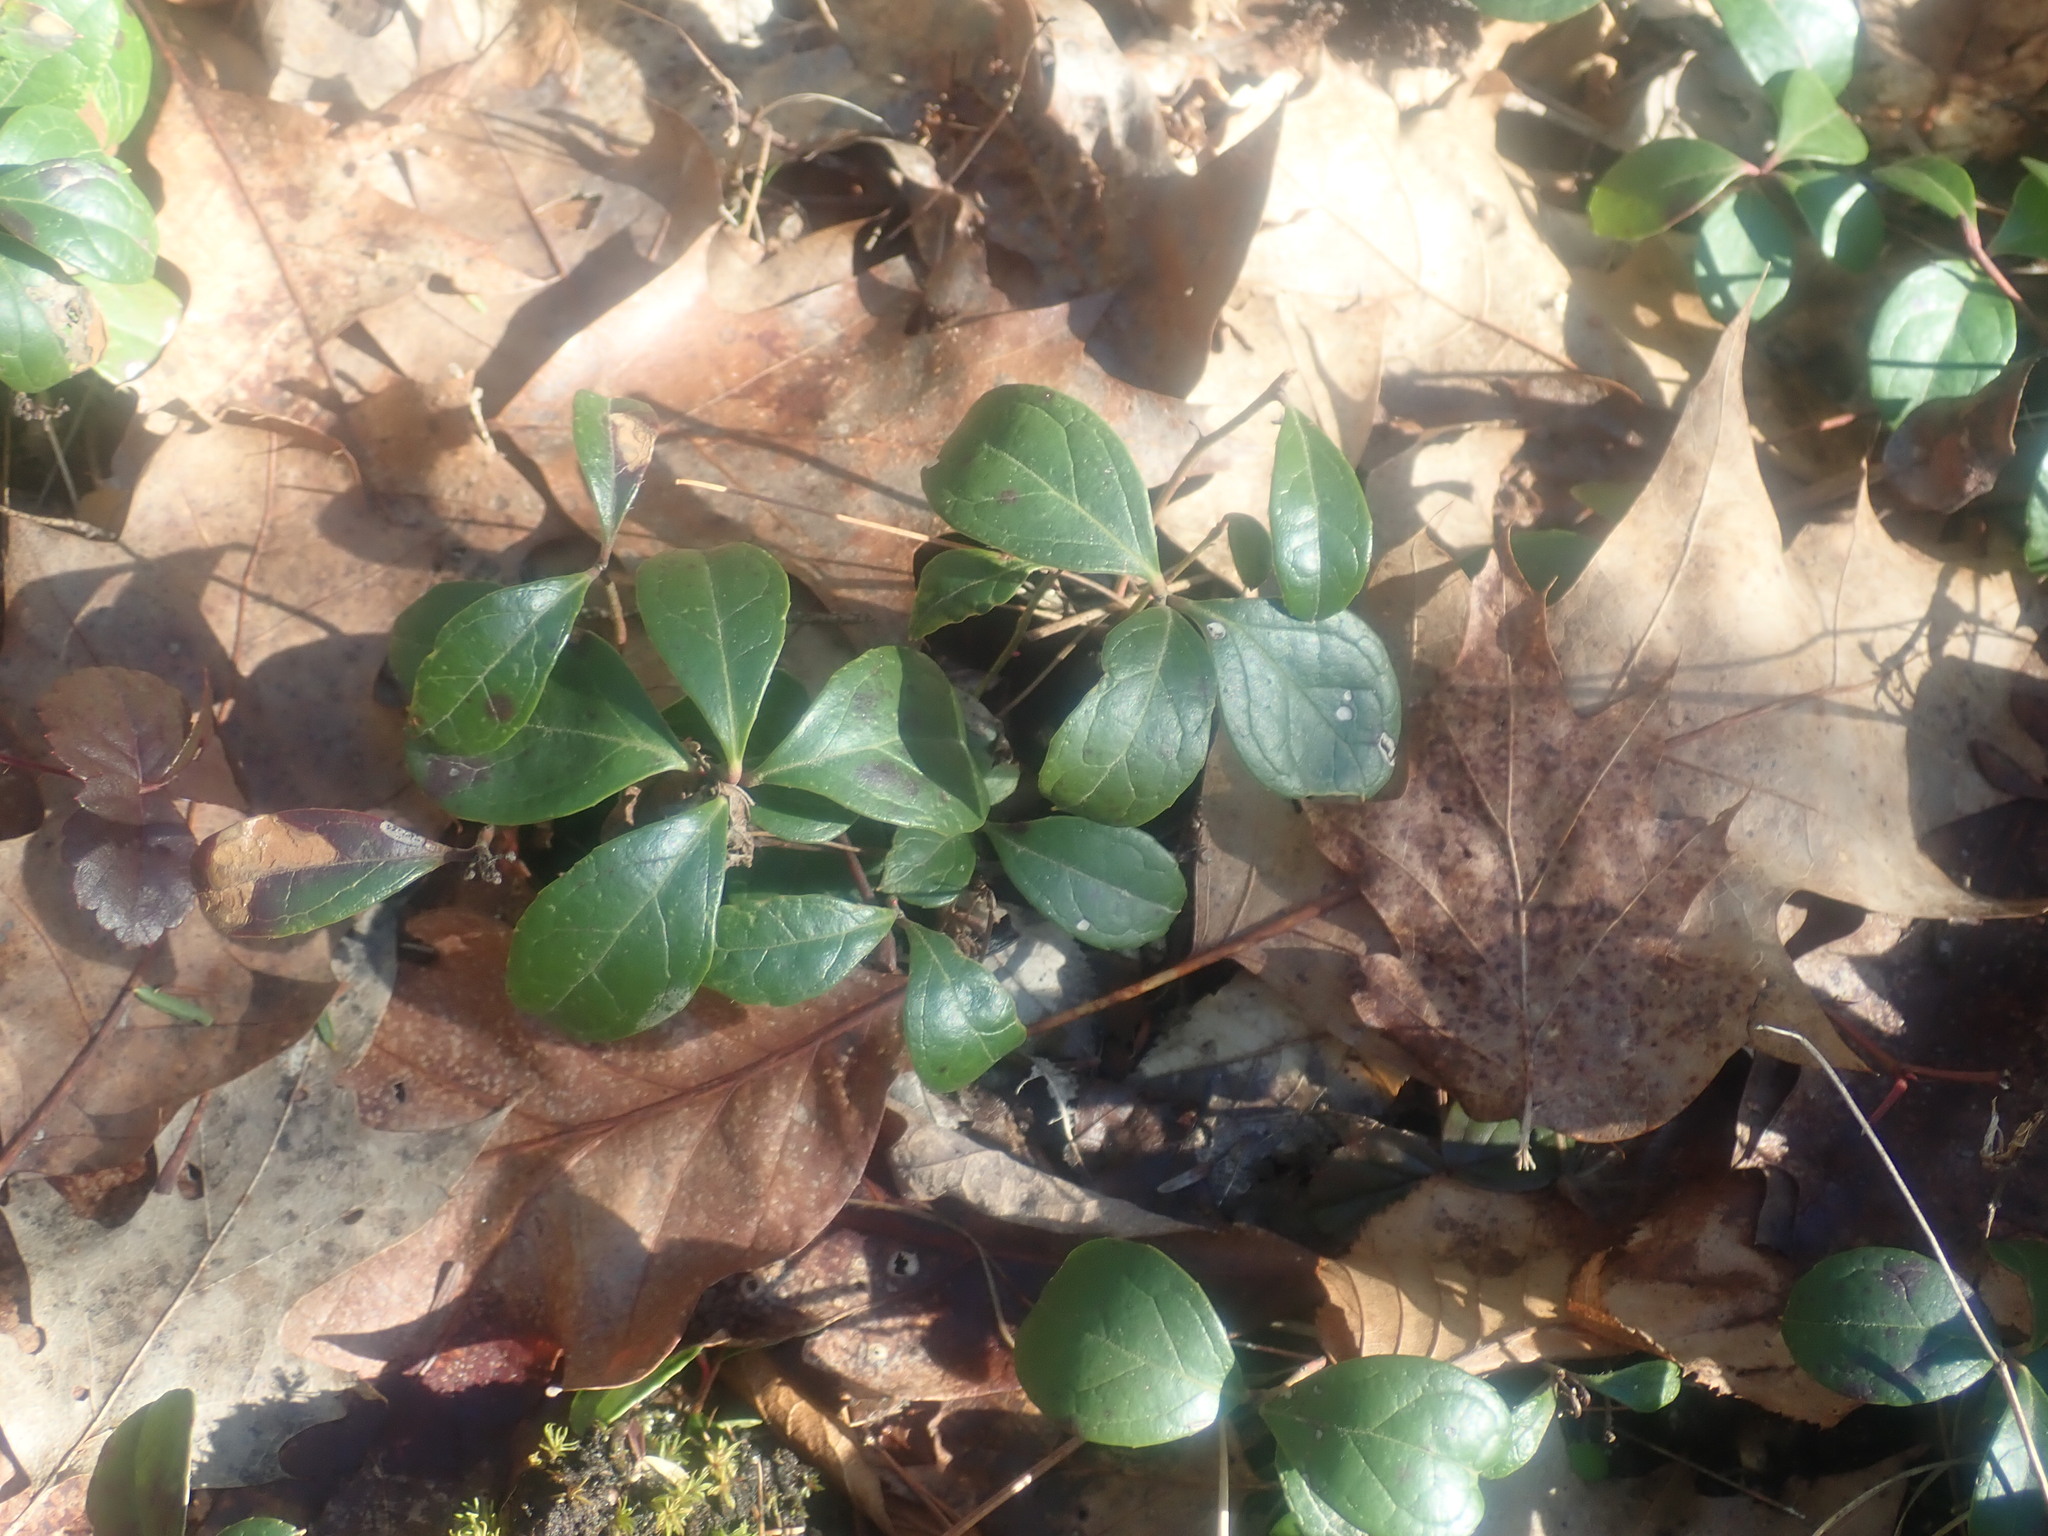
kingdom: Plantae
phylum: Tracheophyta
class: Magnoliopsida
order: Ericales
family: Ericaceae
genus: Gaultheria
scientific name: Gaultheria procumbens
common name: Checkerberry
